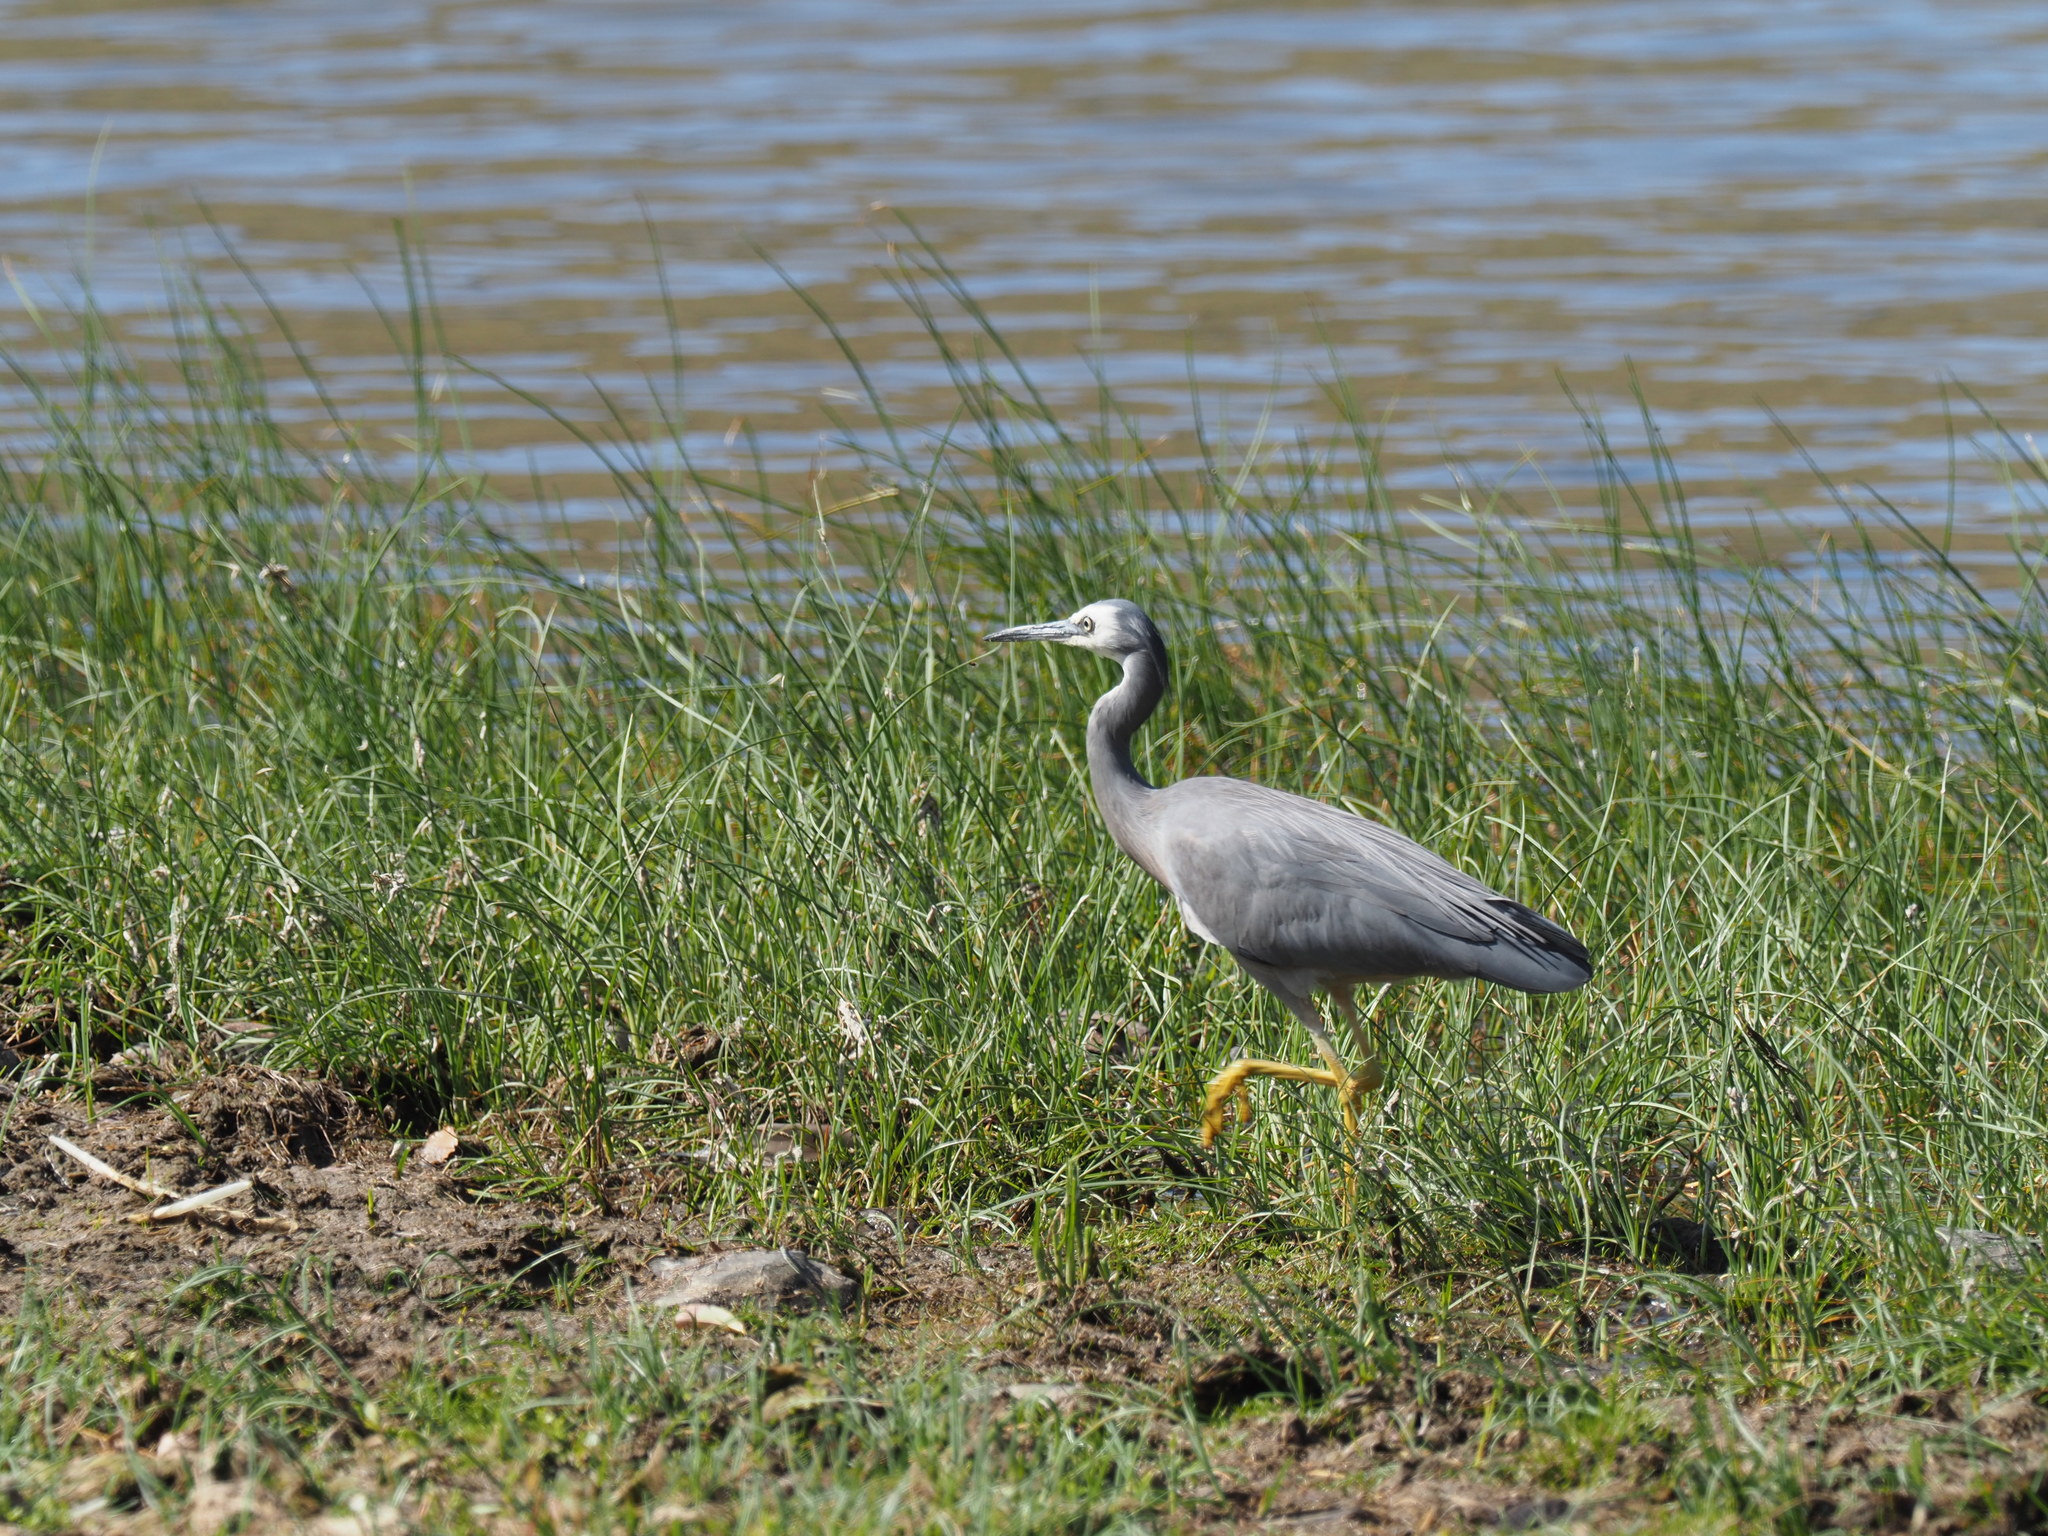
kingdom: Animalia
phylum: Chordata
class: Aves
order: Pelecaniformes
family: Ardeidae
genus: Egretta
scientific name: Egretta novaehollandiae
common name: White-faced heron
